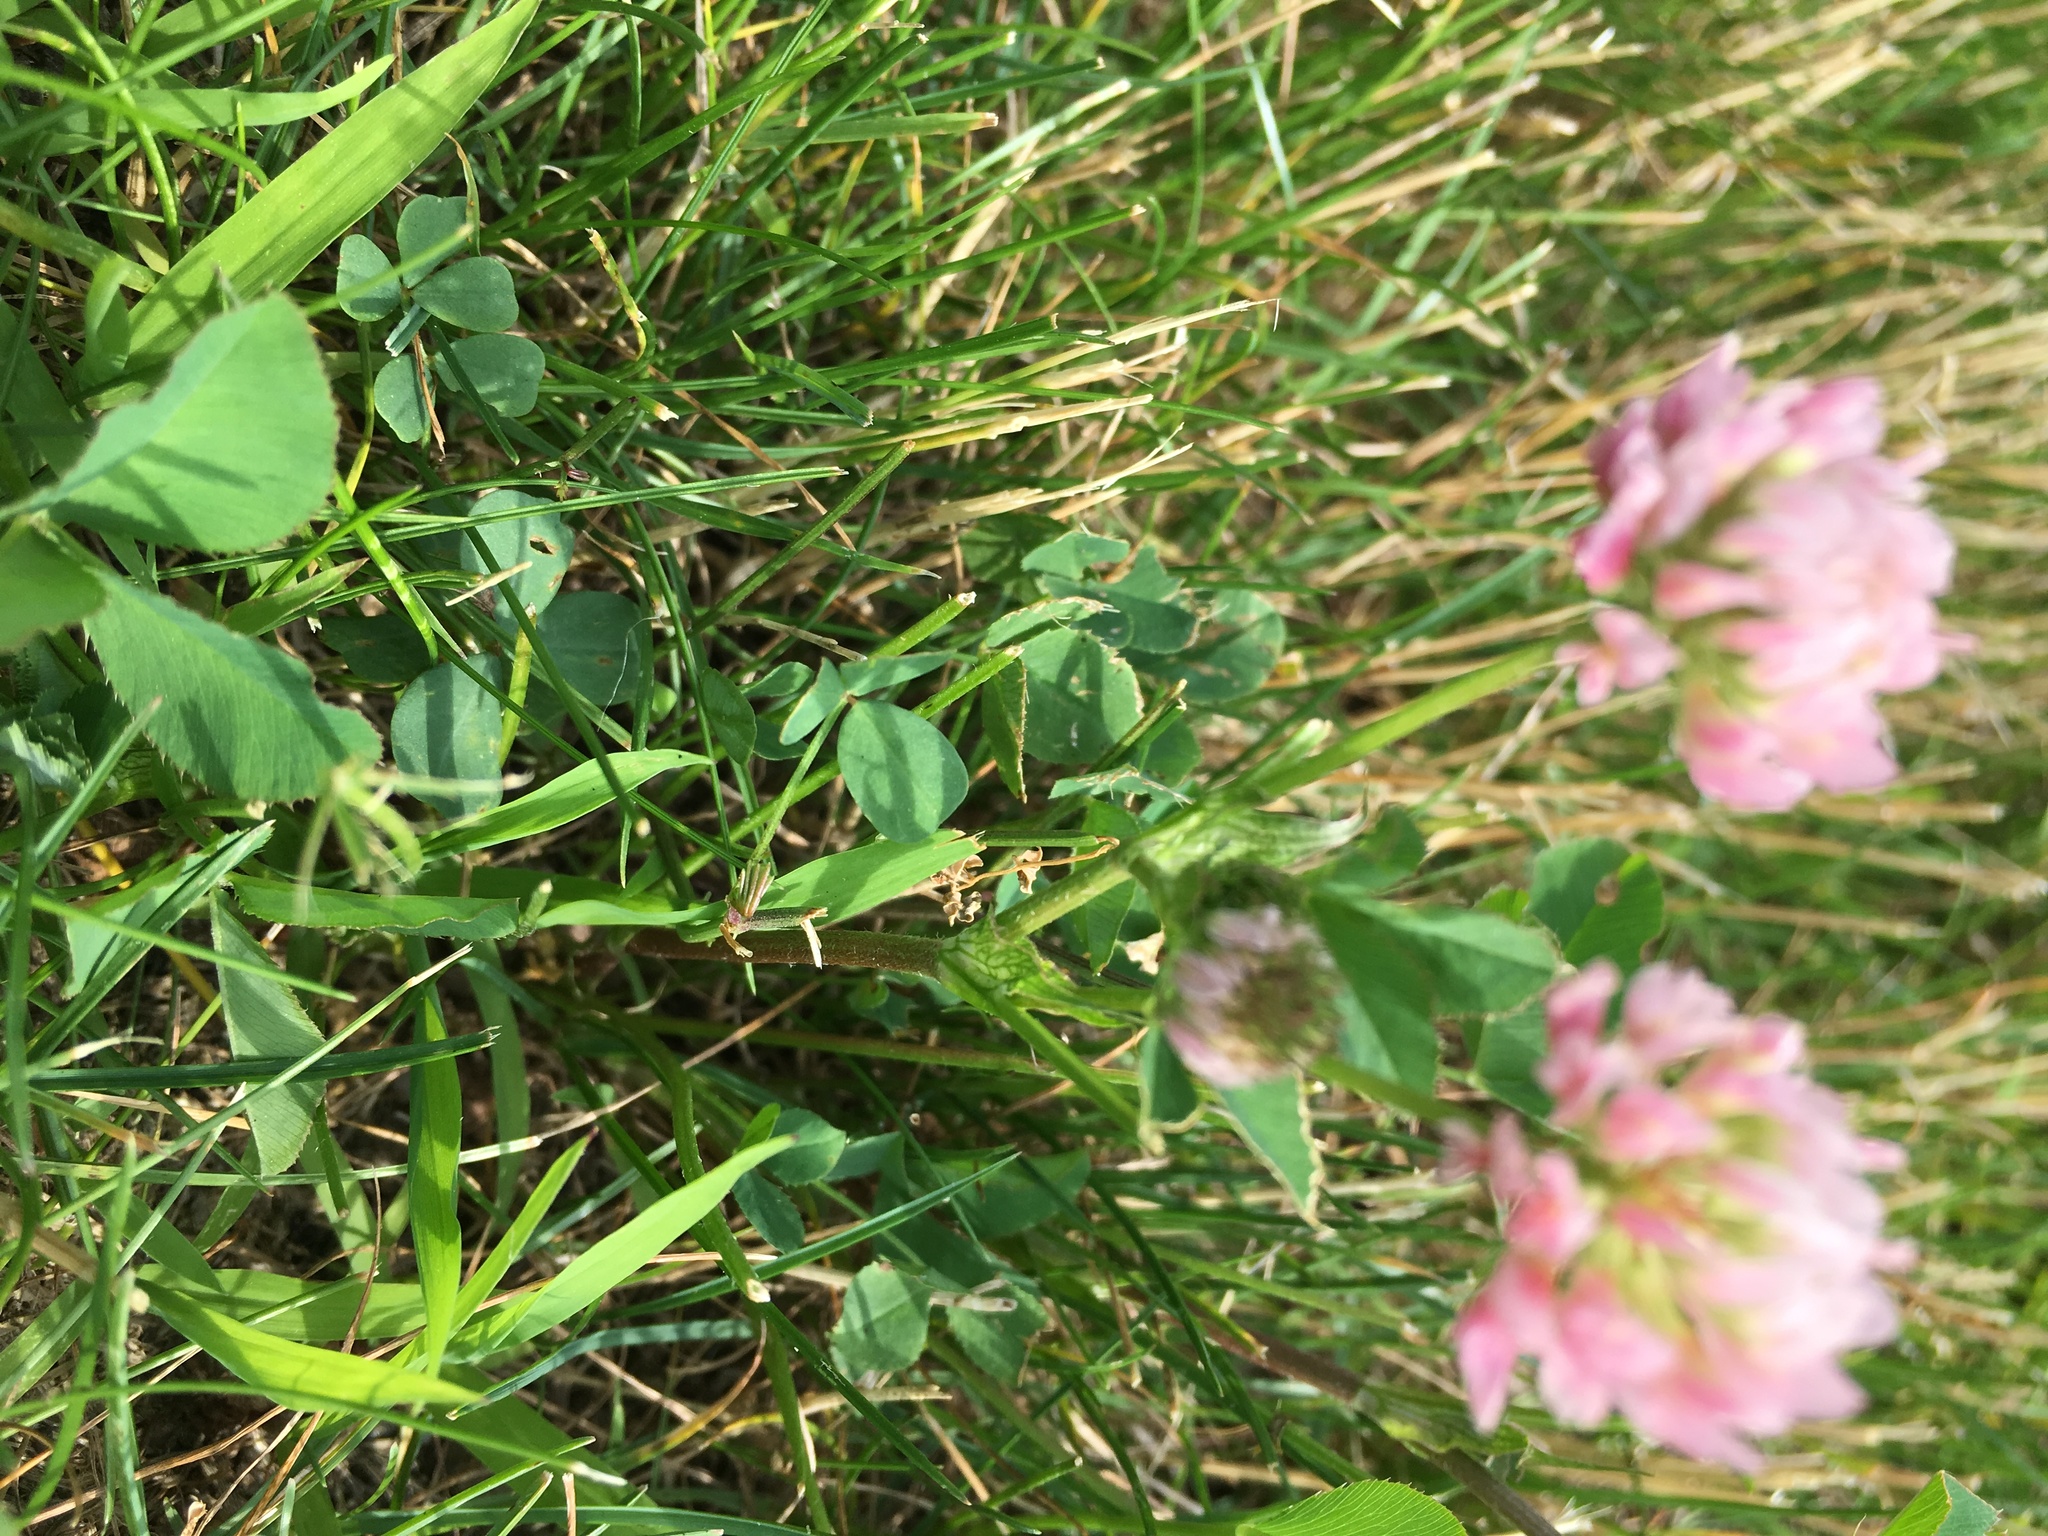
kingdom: Plantae
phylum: Tracheophyta
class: Magnoliopsida
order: Fabales
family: Fabaceae
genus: Trifolium
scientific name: Trifolium hybridum
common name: Alsike clover
